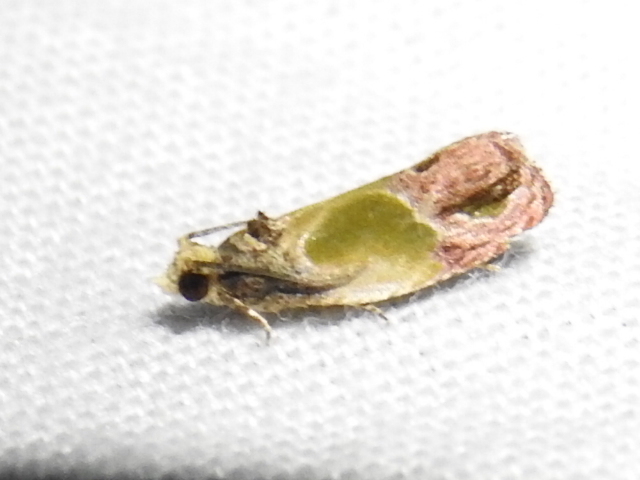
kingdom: Animalia
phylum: Arthropoda
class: Insecta
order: Lepidoptera
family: Tortricidae
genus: Eumarozia
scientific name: Eumarozia malachitana
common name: Sculptured moth
